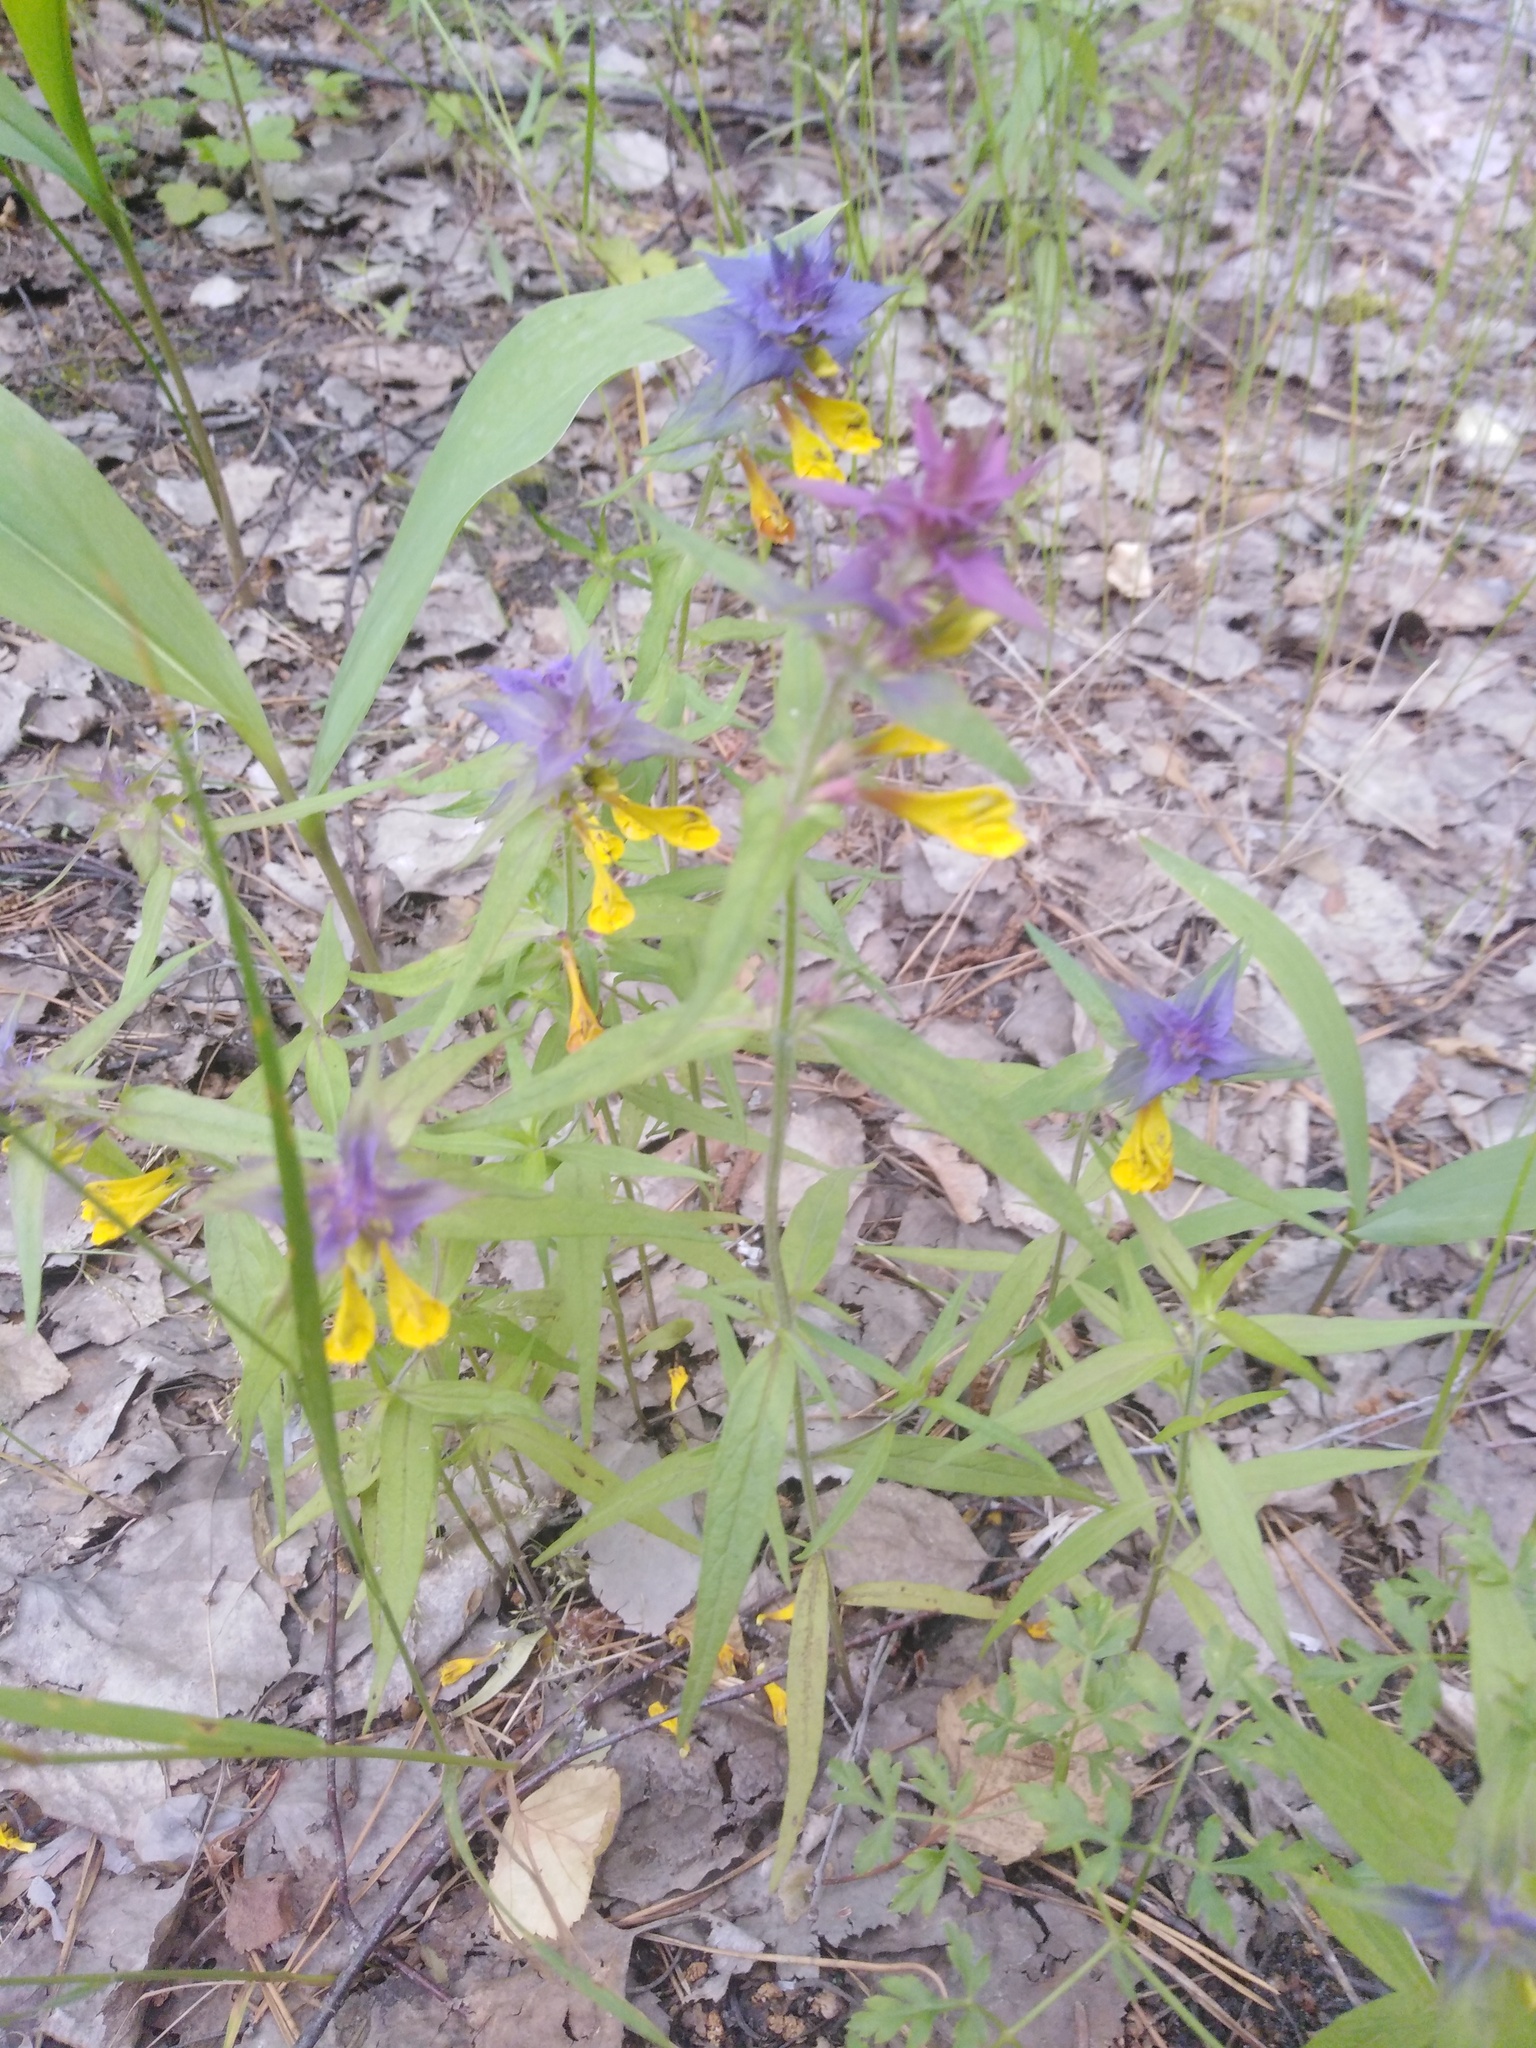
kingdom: Plantae
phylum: Tracheophyta
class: Magnoliopsida
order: Lamiales
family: Orobanchaceae
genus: Melampyrum
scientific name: Melampyrum nemorosum
